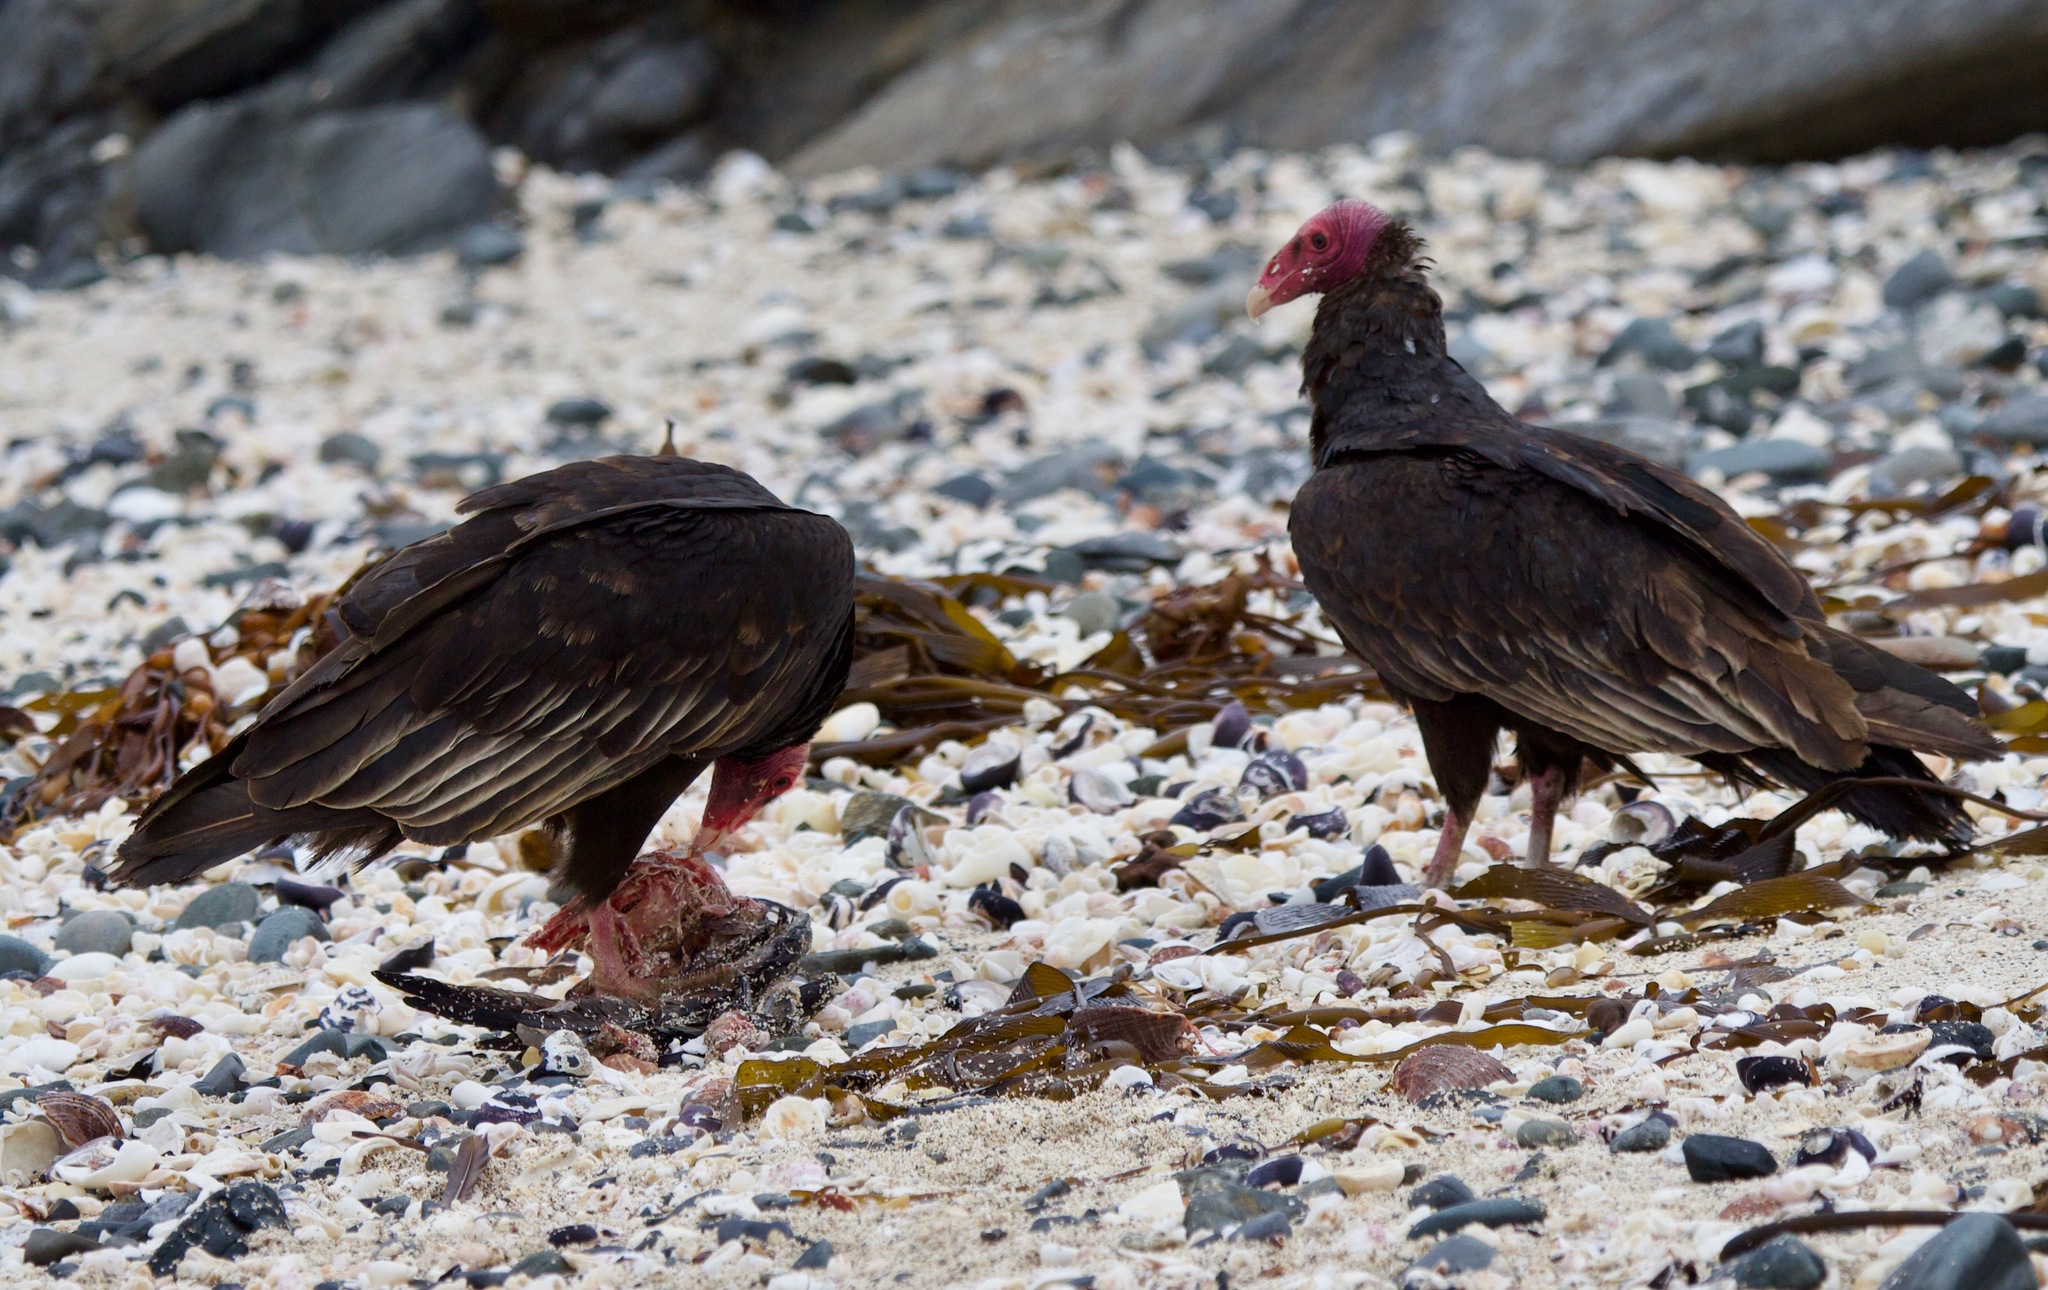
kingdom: Animalia
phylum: Chordata
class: Aves
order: Accipitriformes
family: Cathartidae
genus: Cathartes
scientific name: Cathartes aura
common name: Turkey vulture
